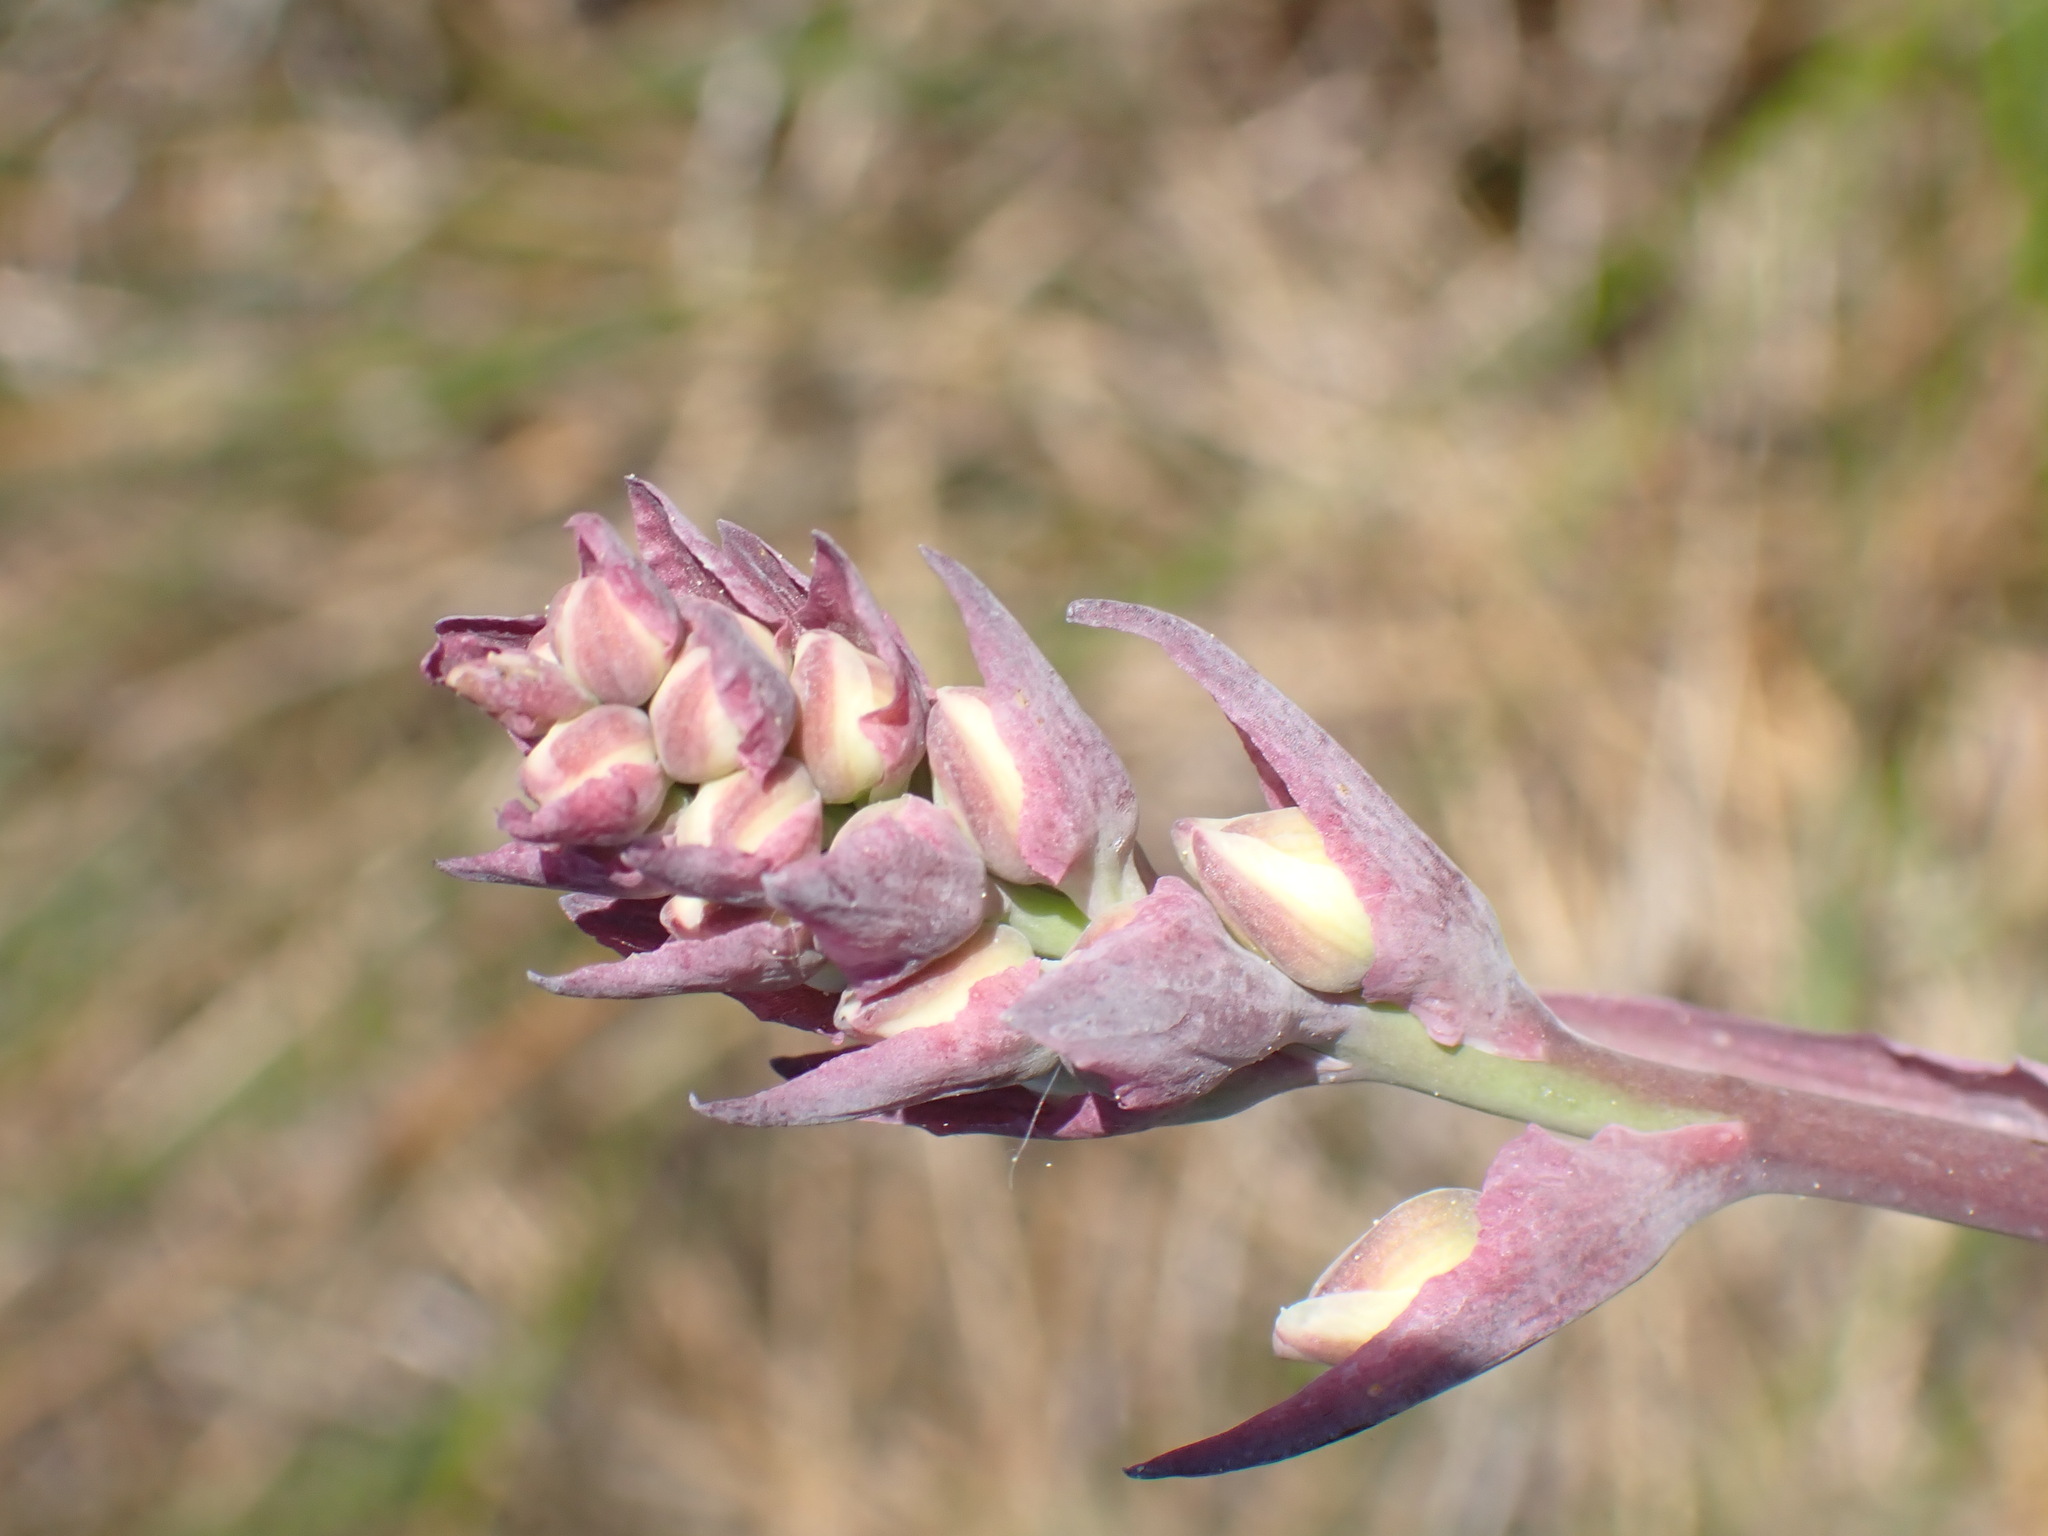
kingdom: Plantae
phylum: Tracheophyta
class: Liliopsida
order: Liliales
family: Melanthiaceae
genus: Anticlea
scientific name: Anticlea elegans
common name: Mountain death camas
